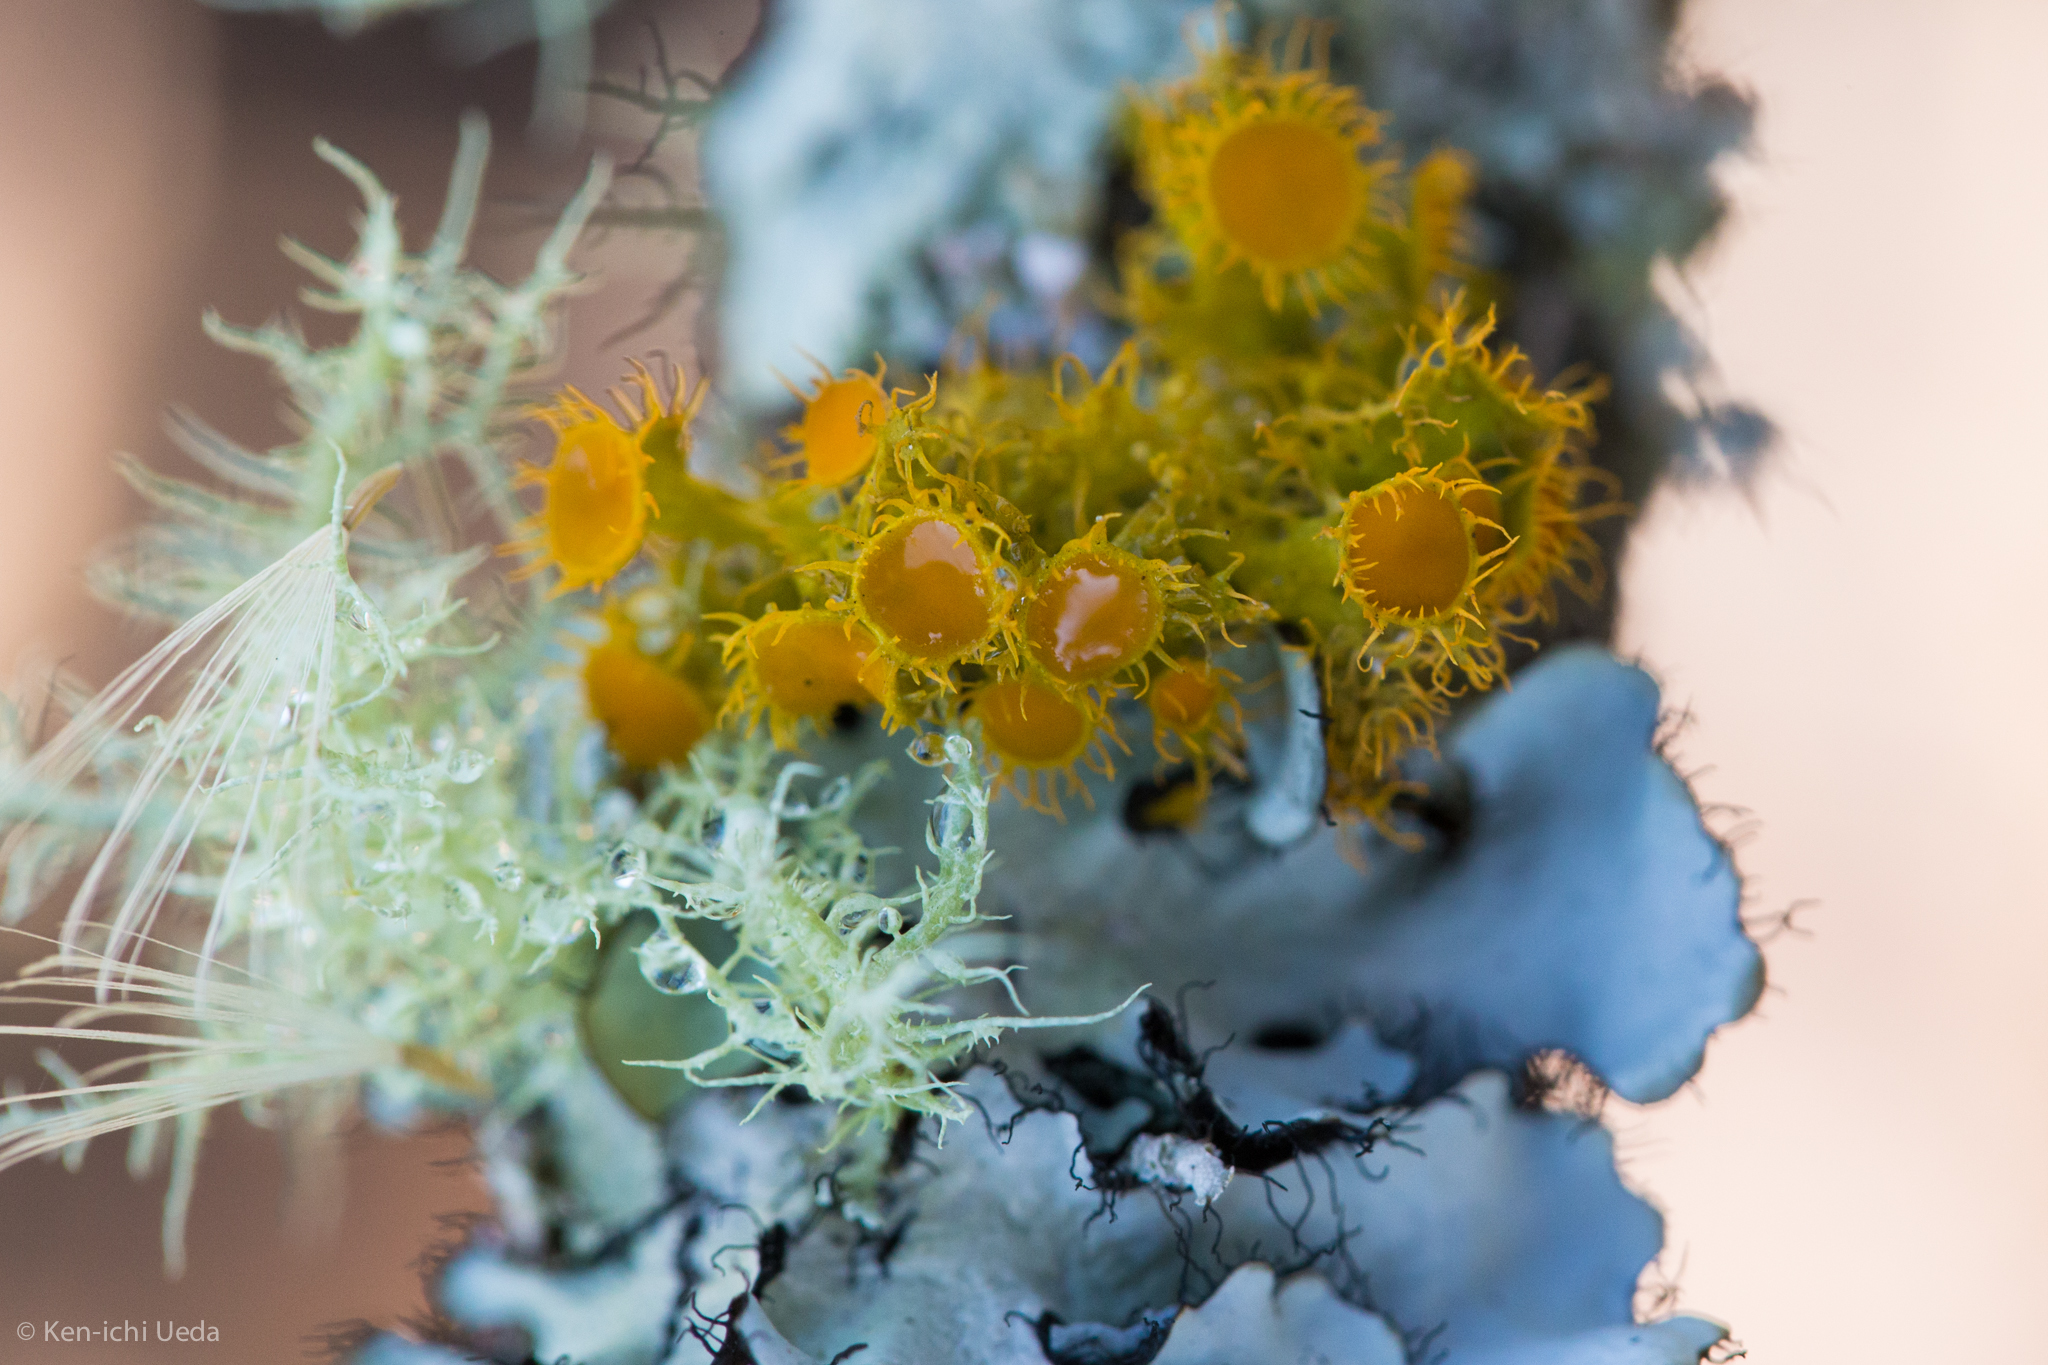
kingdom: Fungi
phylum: Ascomycota
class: Lecanoromycetes
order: Teloschistales
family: Teloschistaceae
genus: Niorma
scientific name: Niorma chrysophthalma
